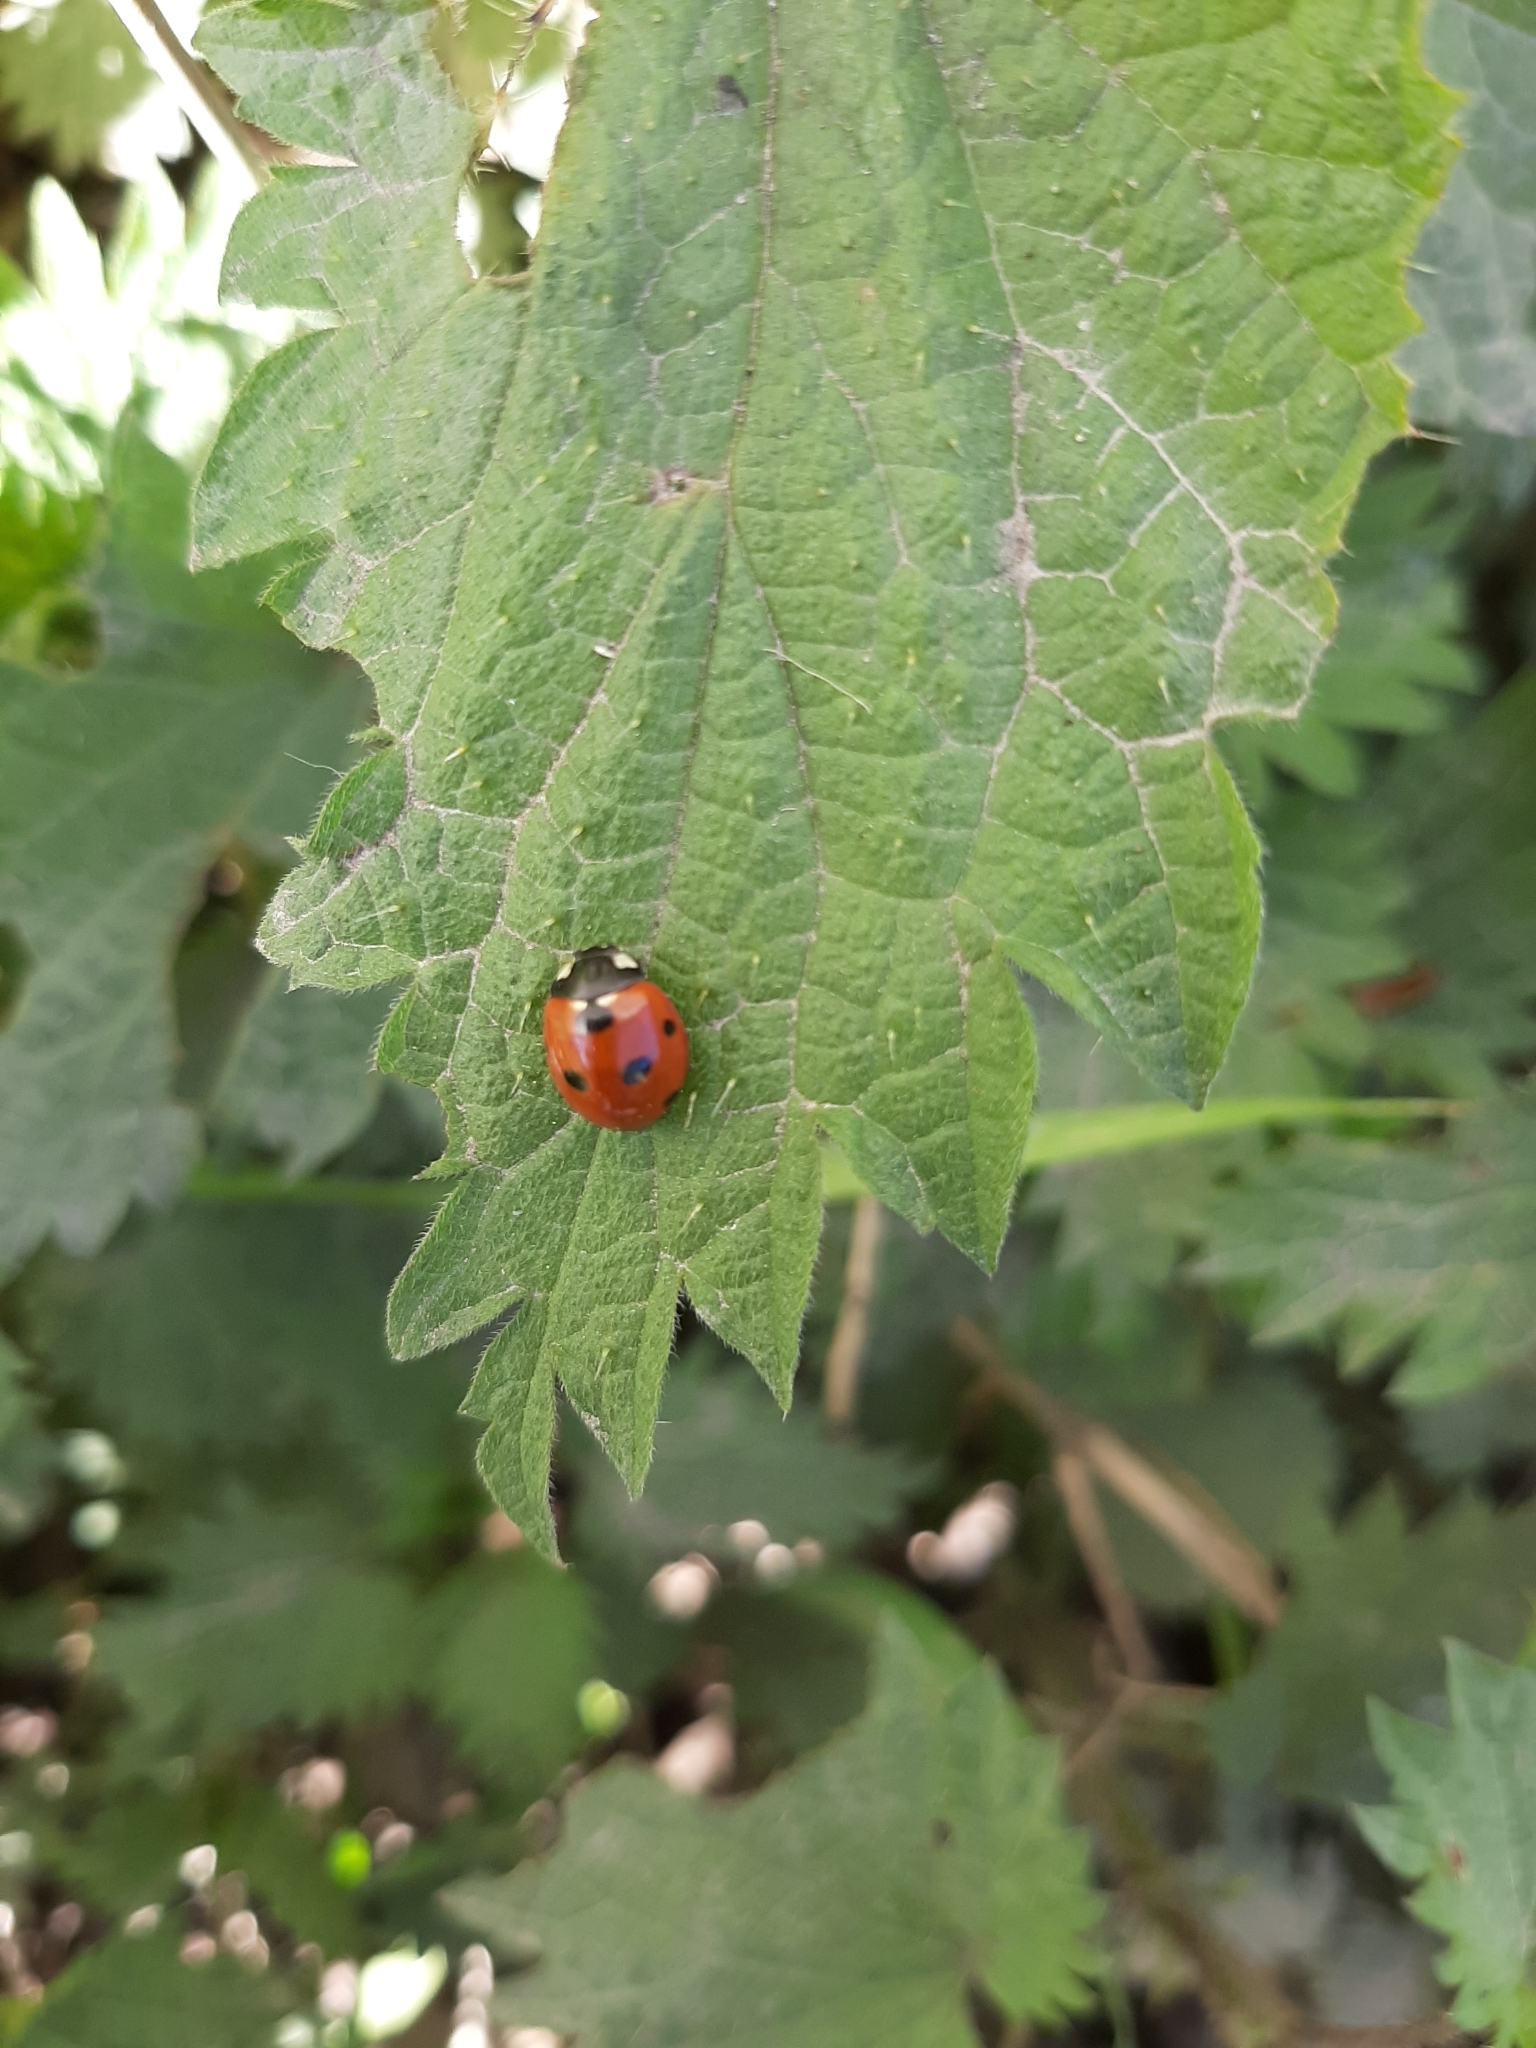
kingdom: Animalia
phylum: Arthropoda
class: Insecta
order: Coleoptera
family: Coccinellidae
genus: Coccinella
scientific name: Coccinella septempunctata
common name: Sevenspotted lady beetle
